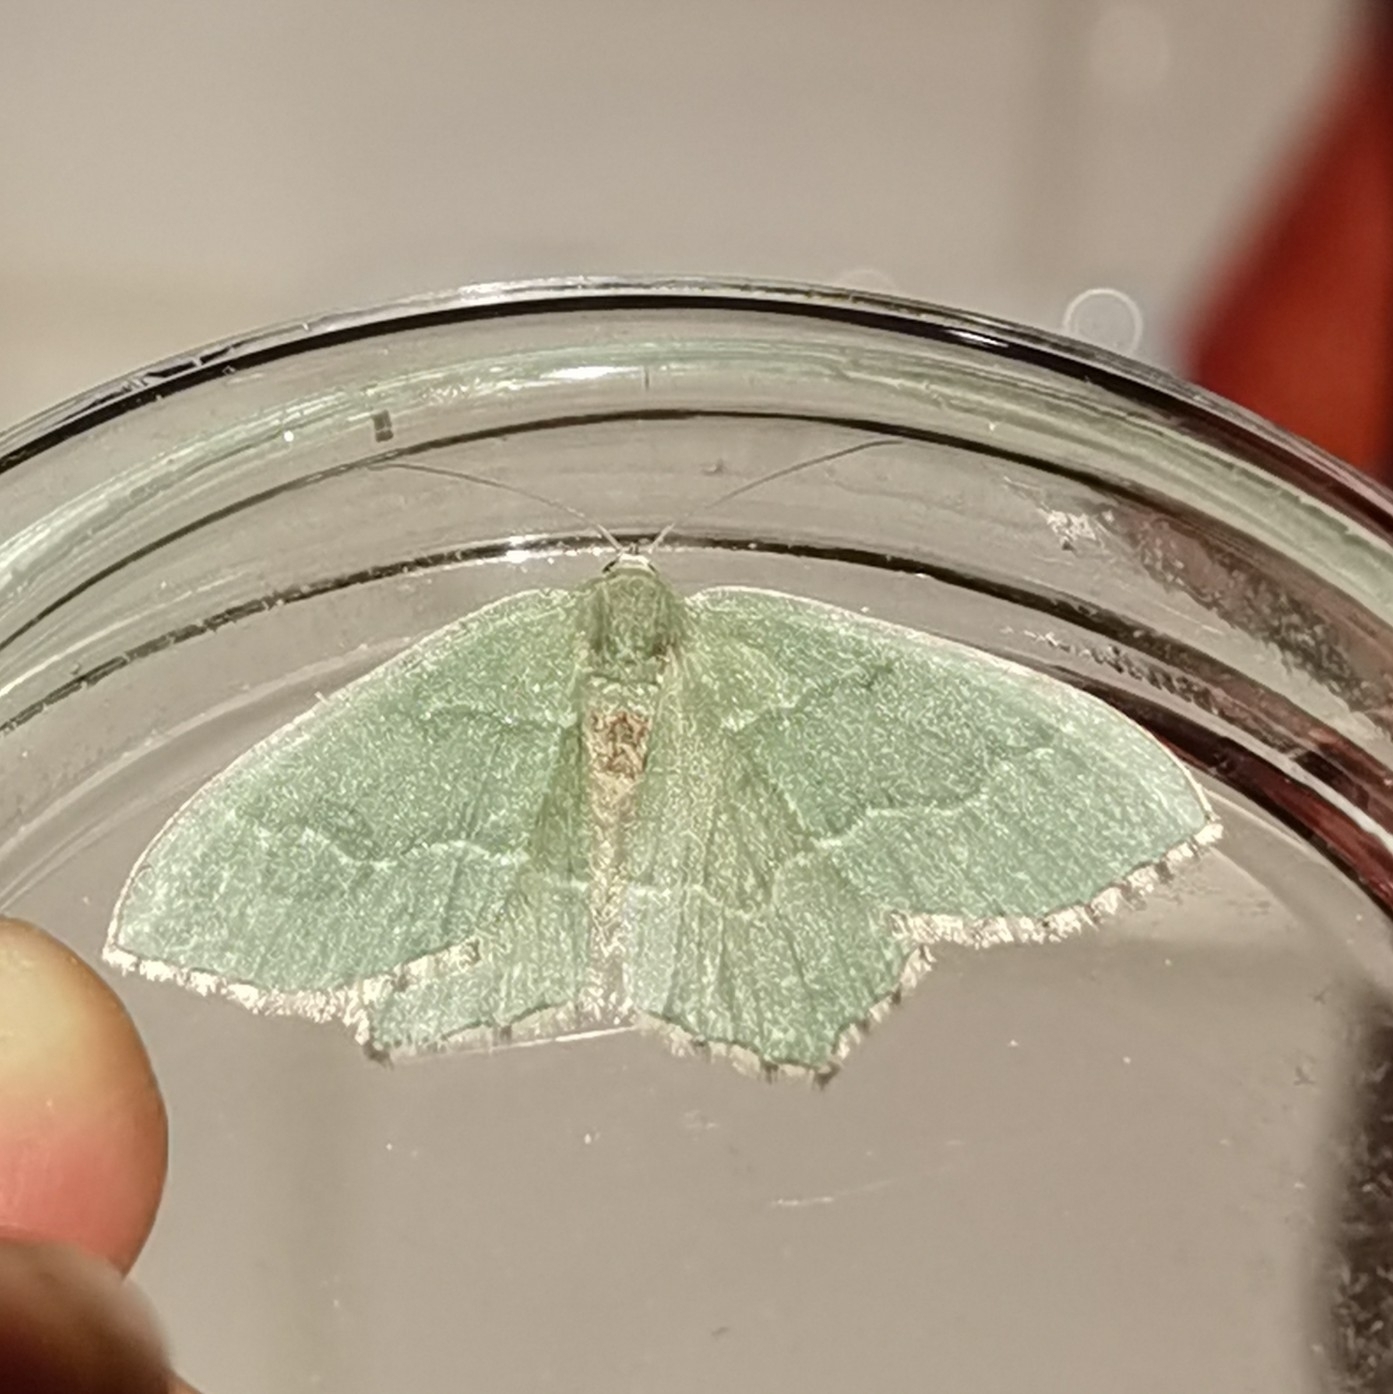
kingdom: Animalia
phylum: Arthropoda
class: Insecta
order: Lepidoptera
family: Geometridae
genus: Hemithea
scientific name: Hemithea aestivaria
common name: Common emerald
